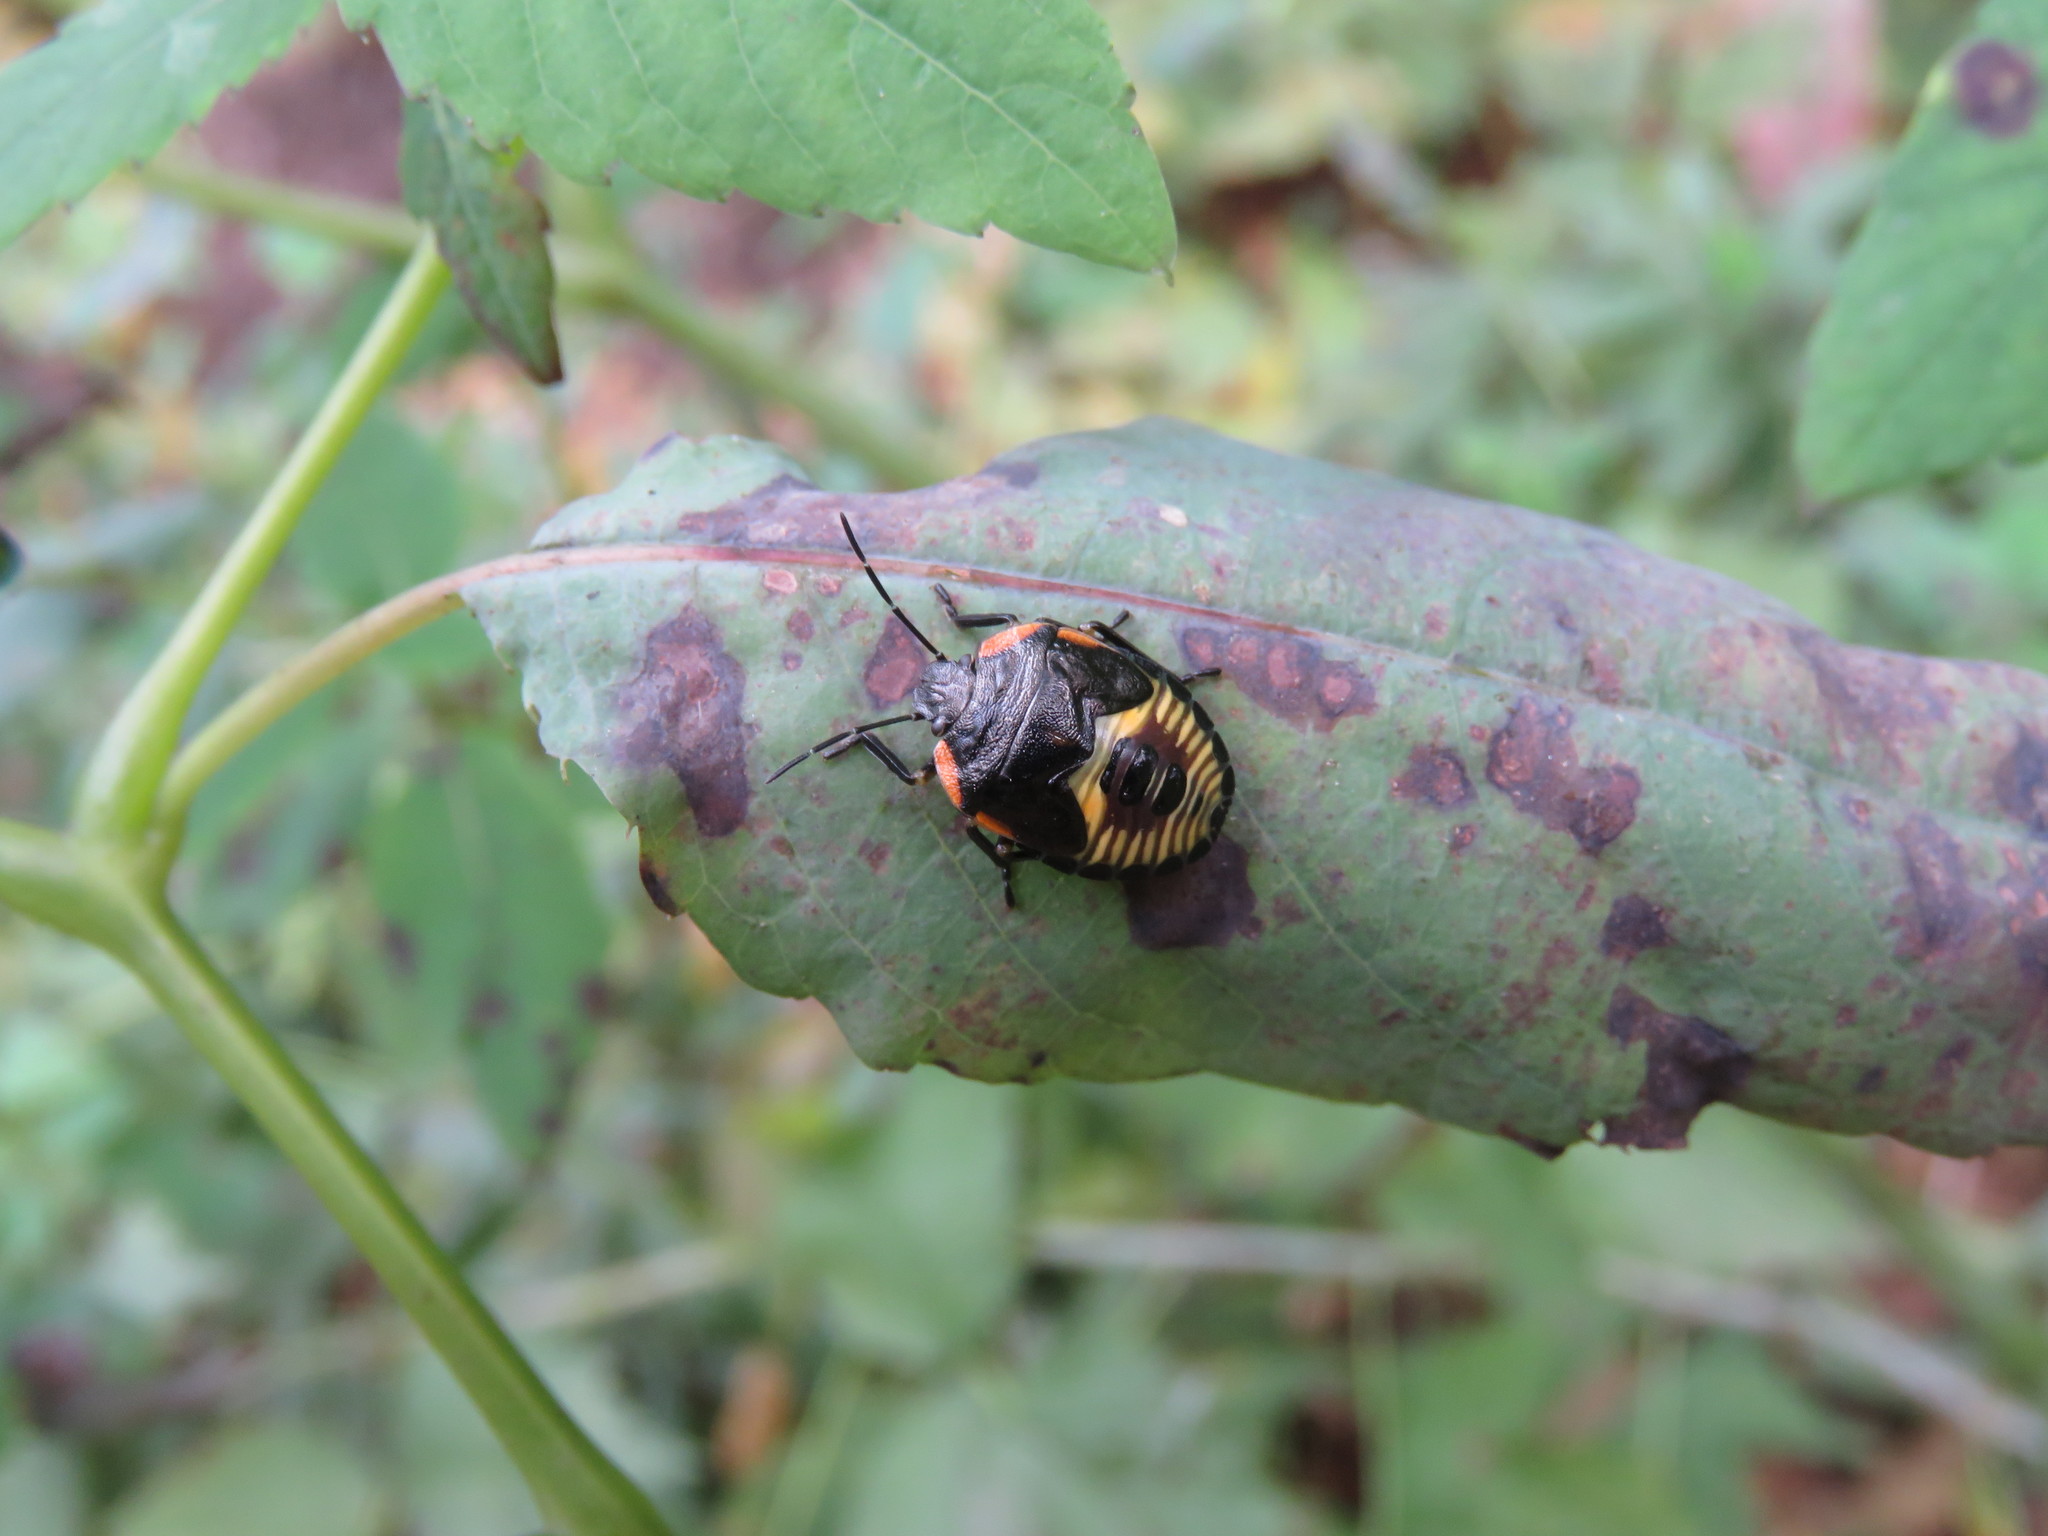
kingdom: Animalia
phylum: Arthropoda
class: Insecta
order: Hemiptera
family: Pentatomidae
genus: Chinavia
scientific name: Chinavia hilaris
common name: Green stink bug
